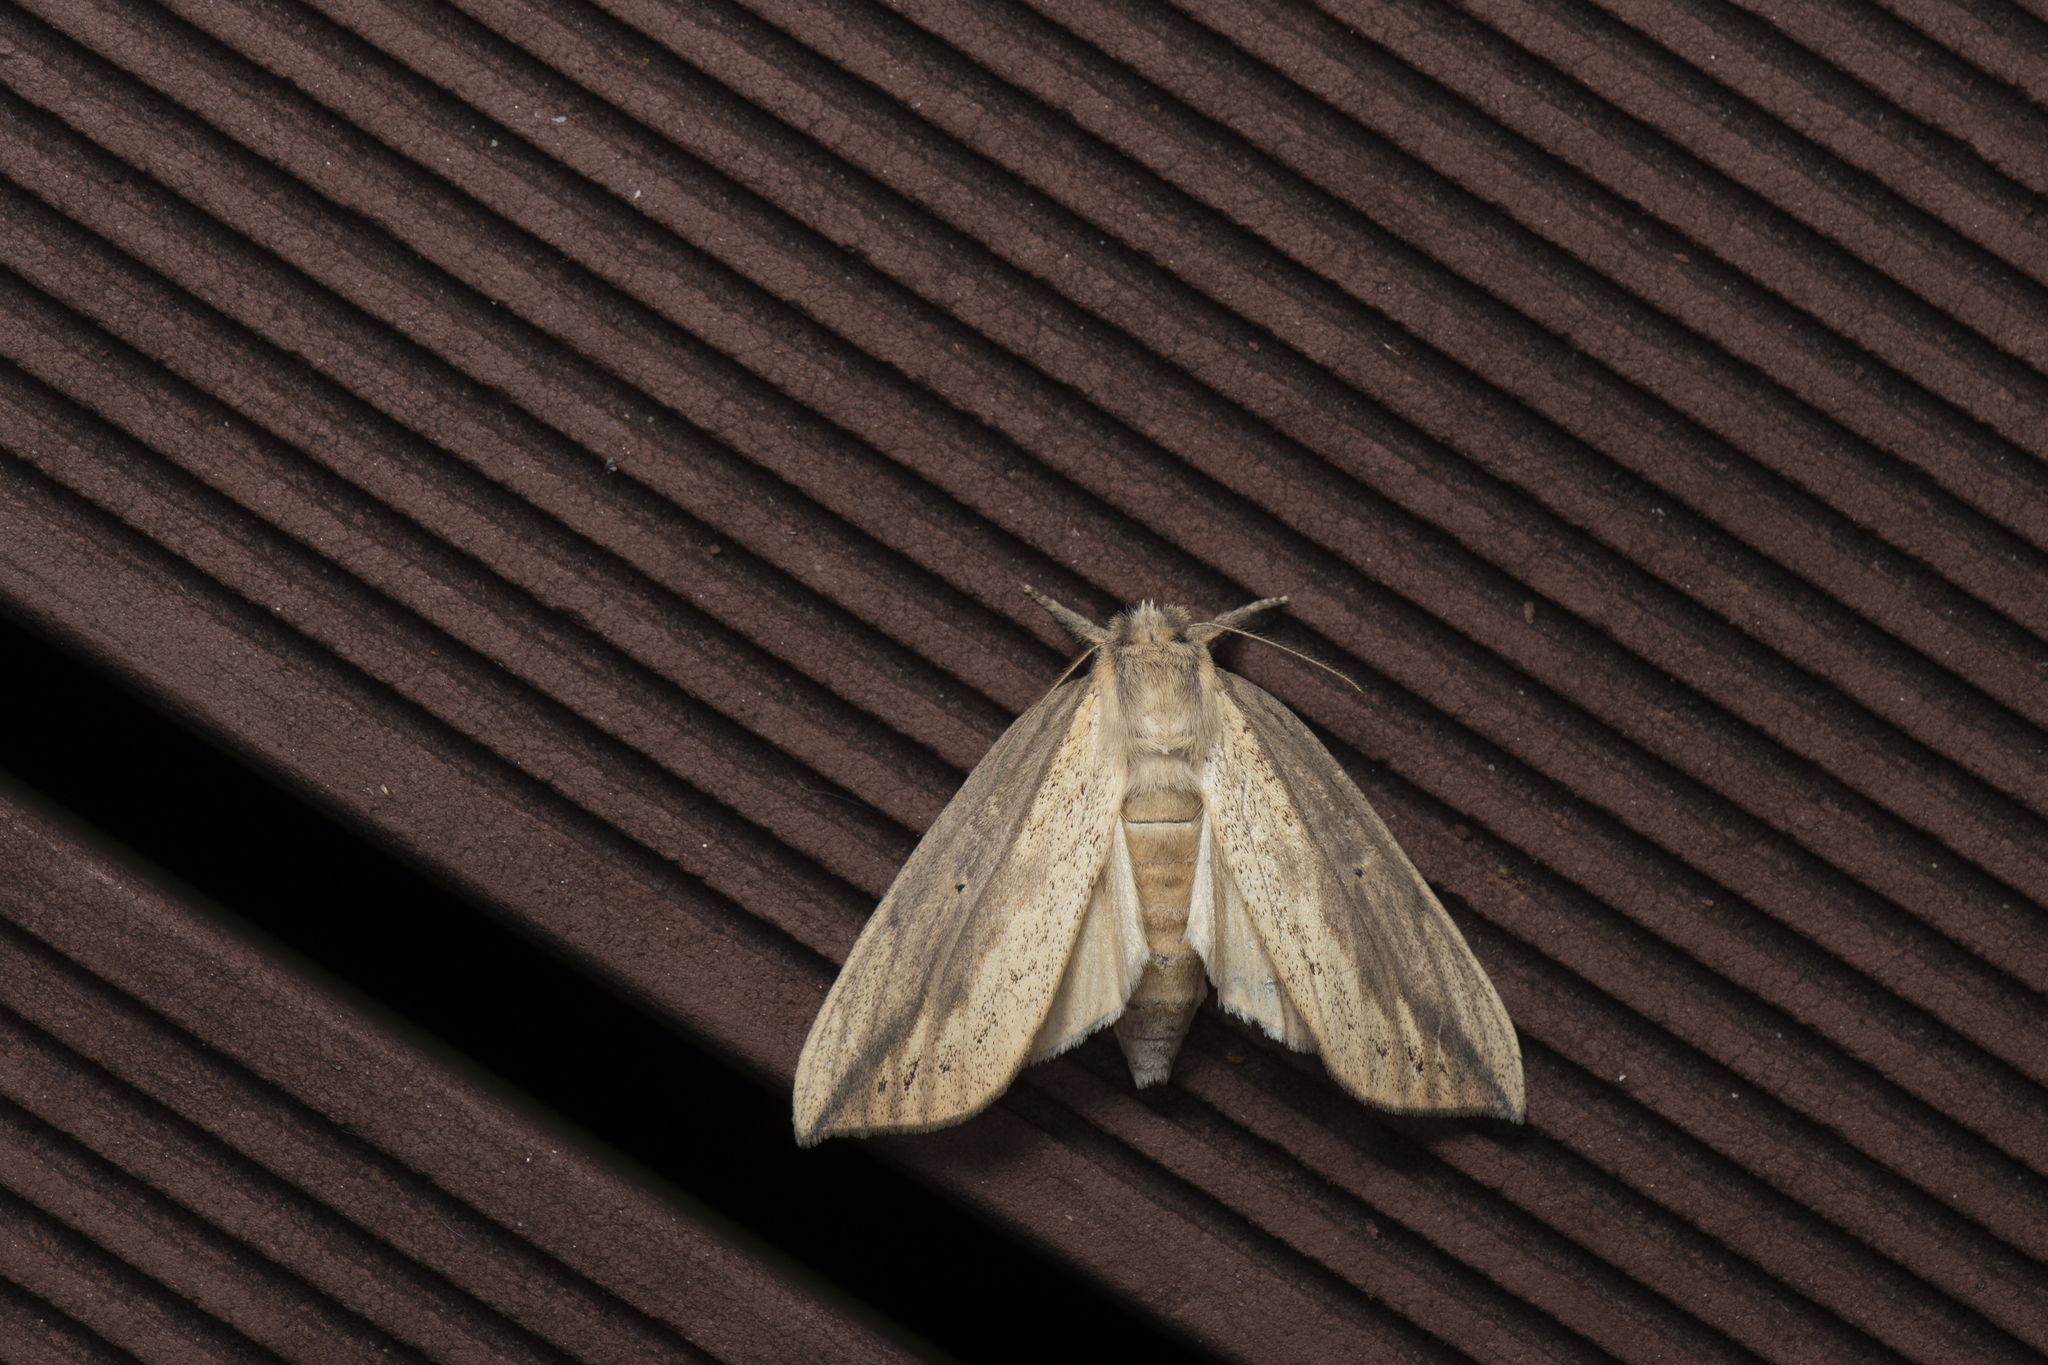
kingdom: Animalia
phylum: Arthropoda
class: Insecta
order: Lepidoptera
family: Notodontidae
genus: Periergos
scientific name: Periergos magna
